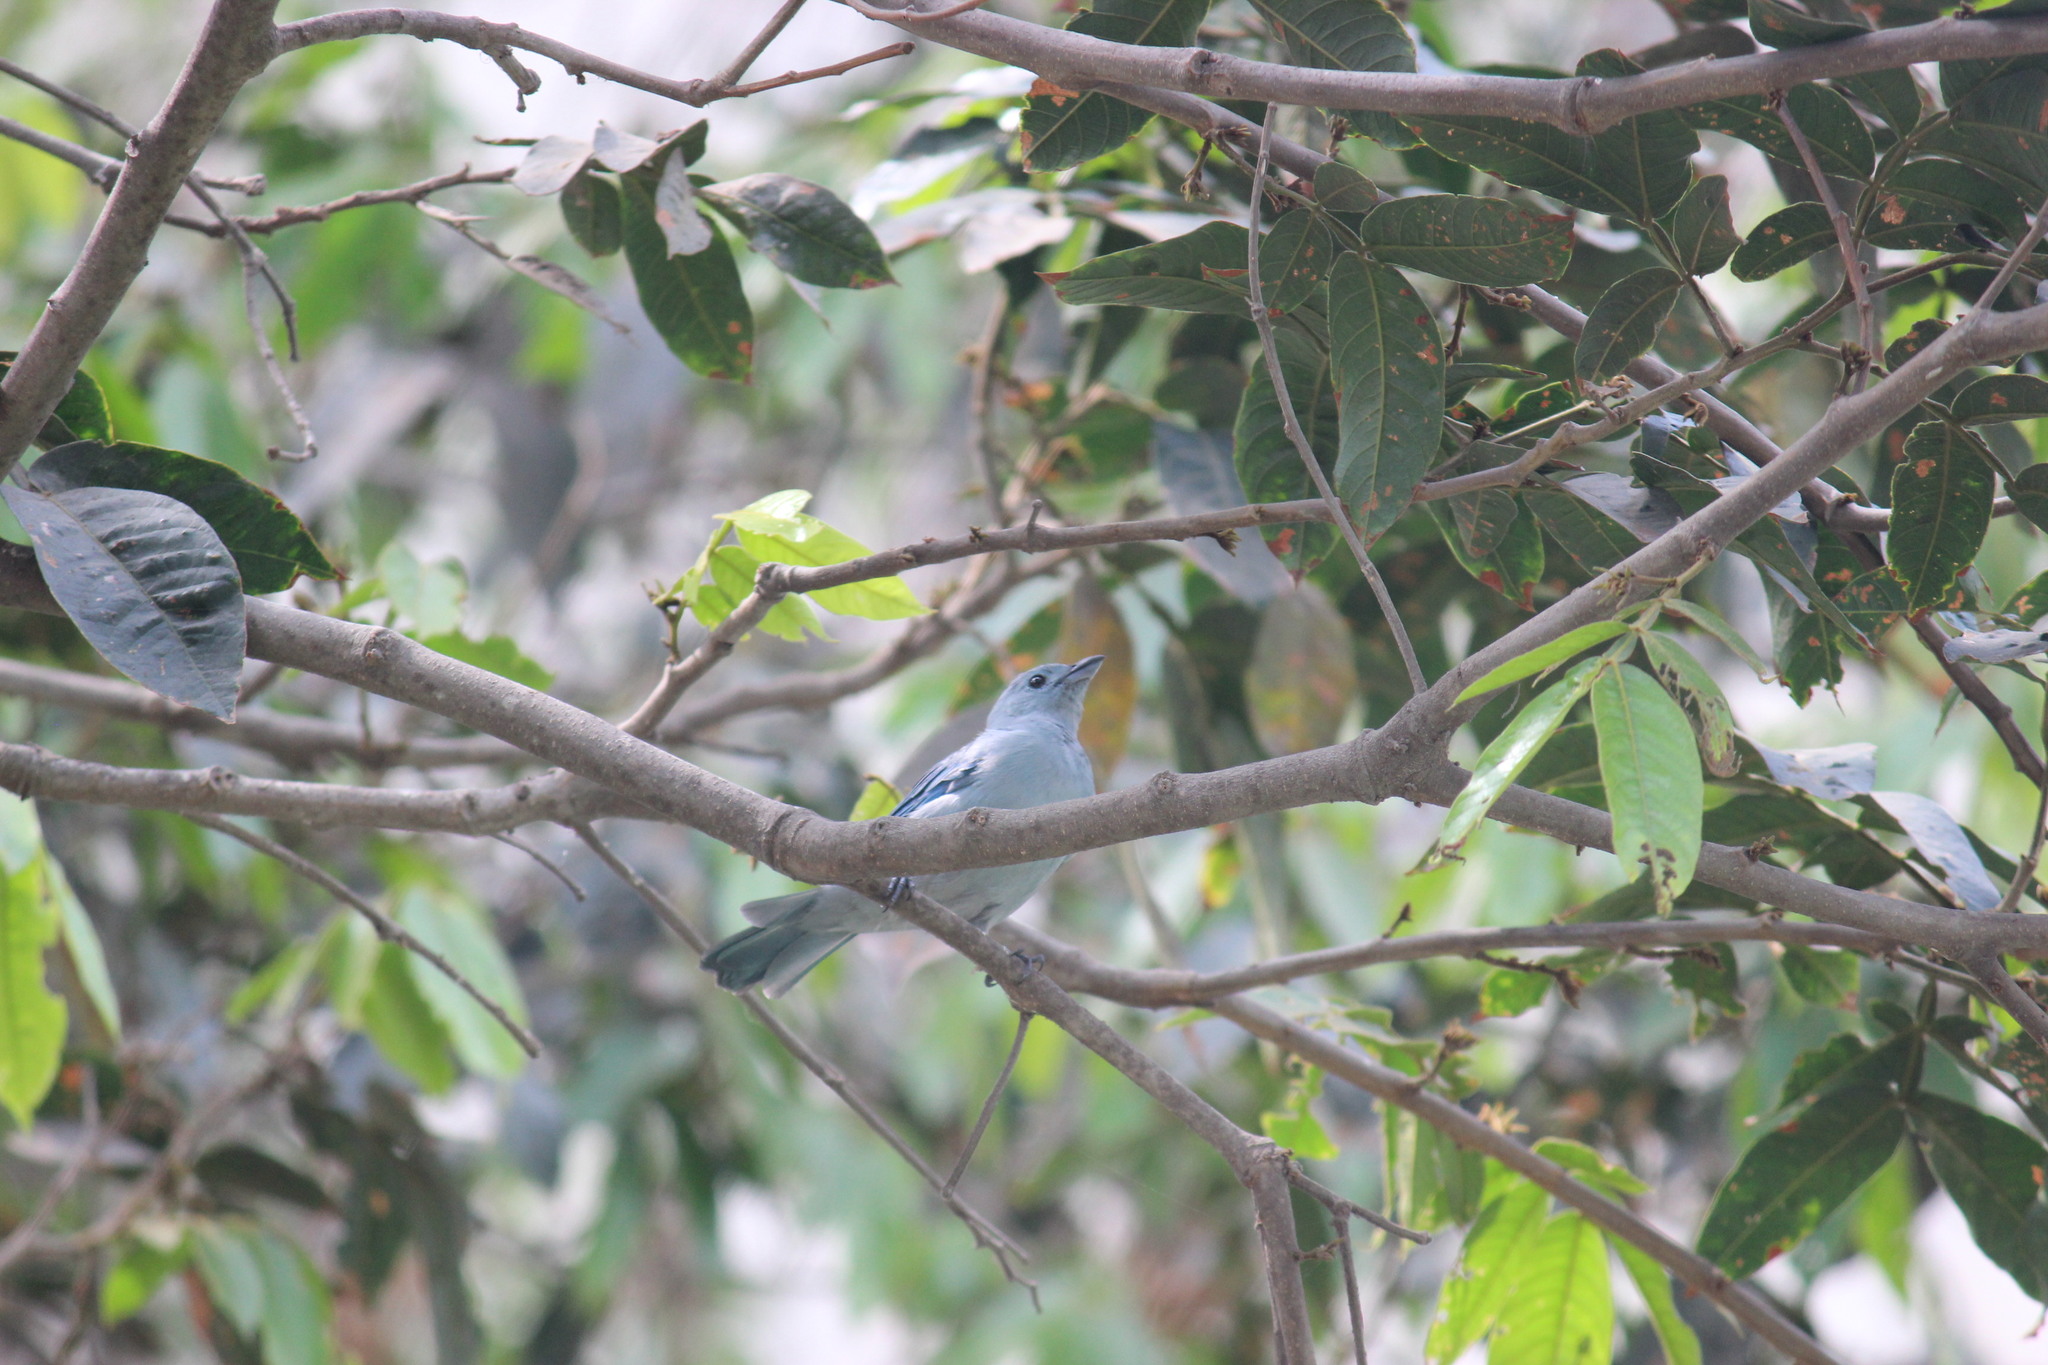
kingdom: Animalia
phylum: Chordata
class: Aves
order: Passeriformes
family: Thraupidae
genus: Thraupis
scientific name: Thraupis episcopus
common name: Blue-grey tanager
